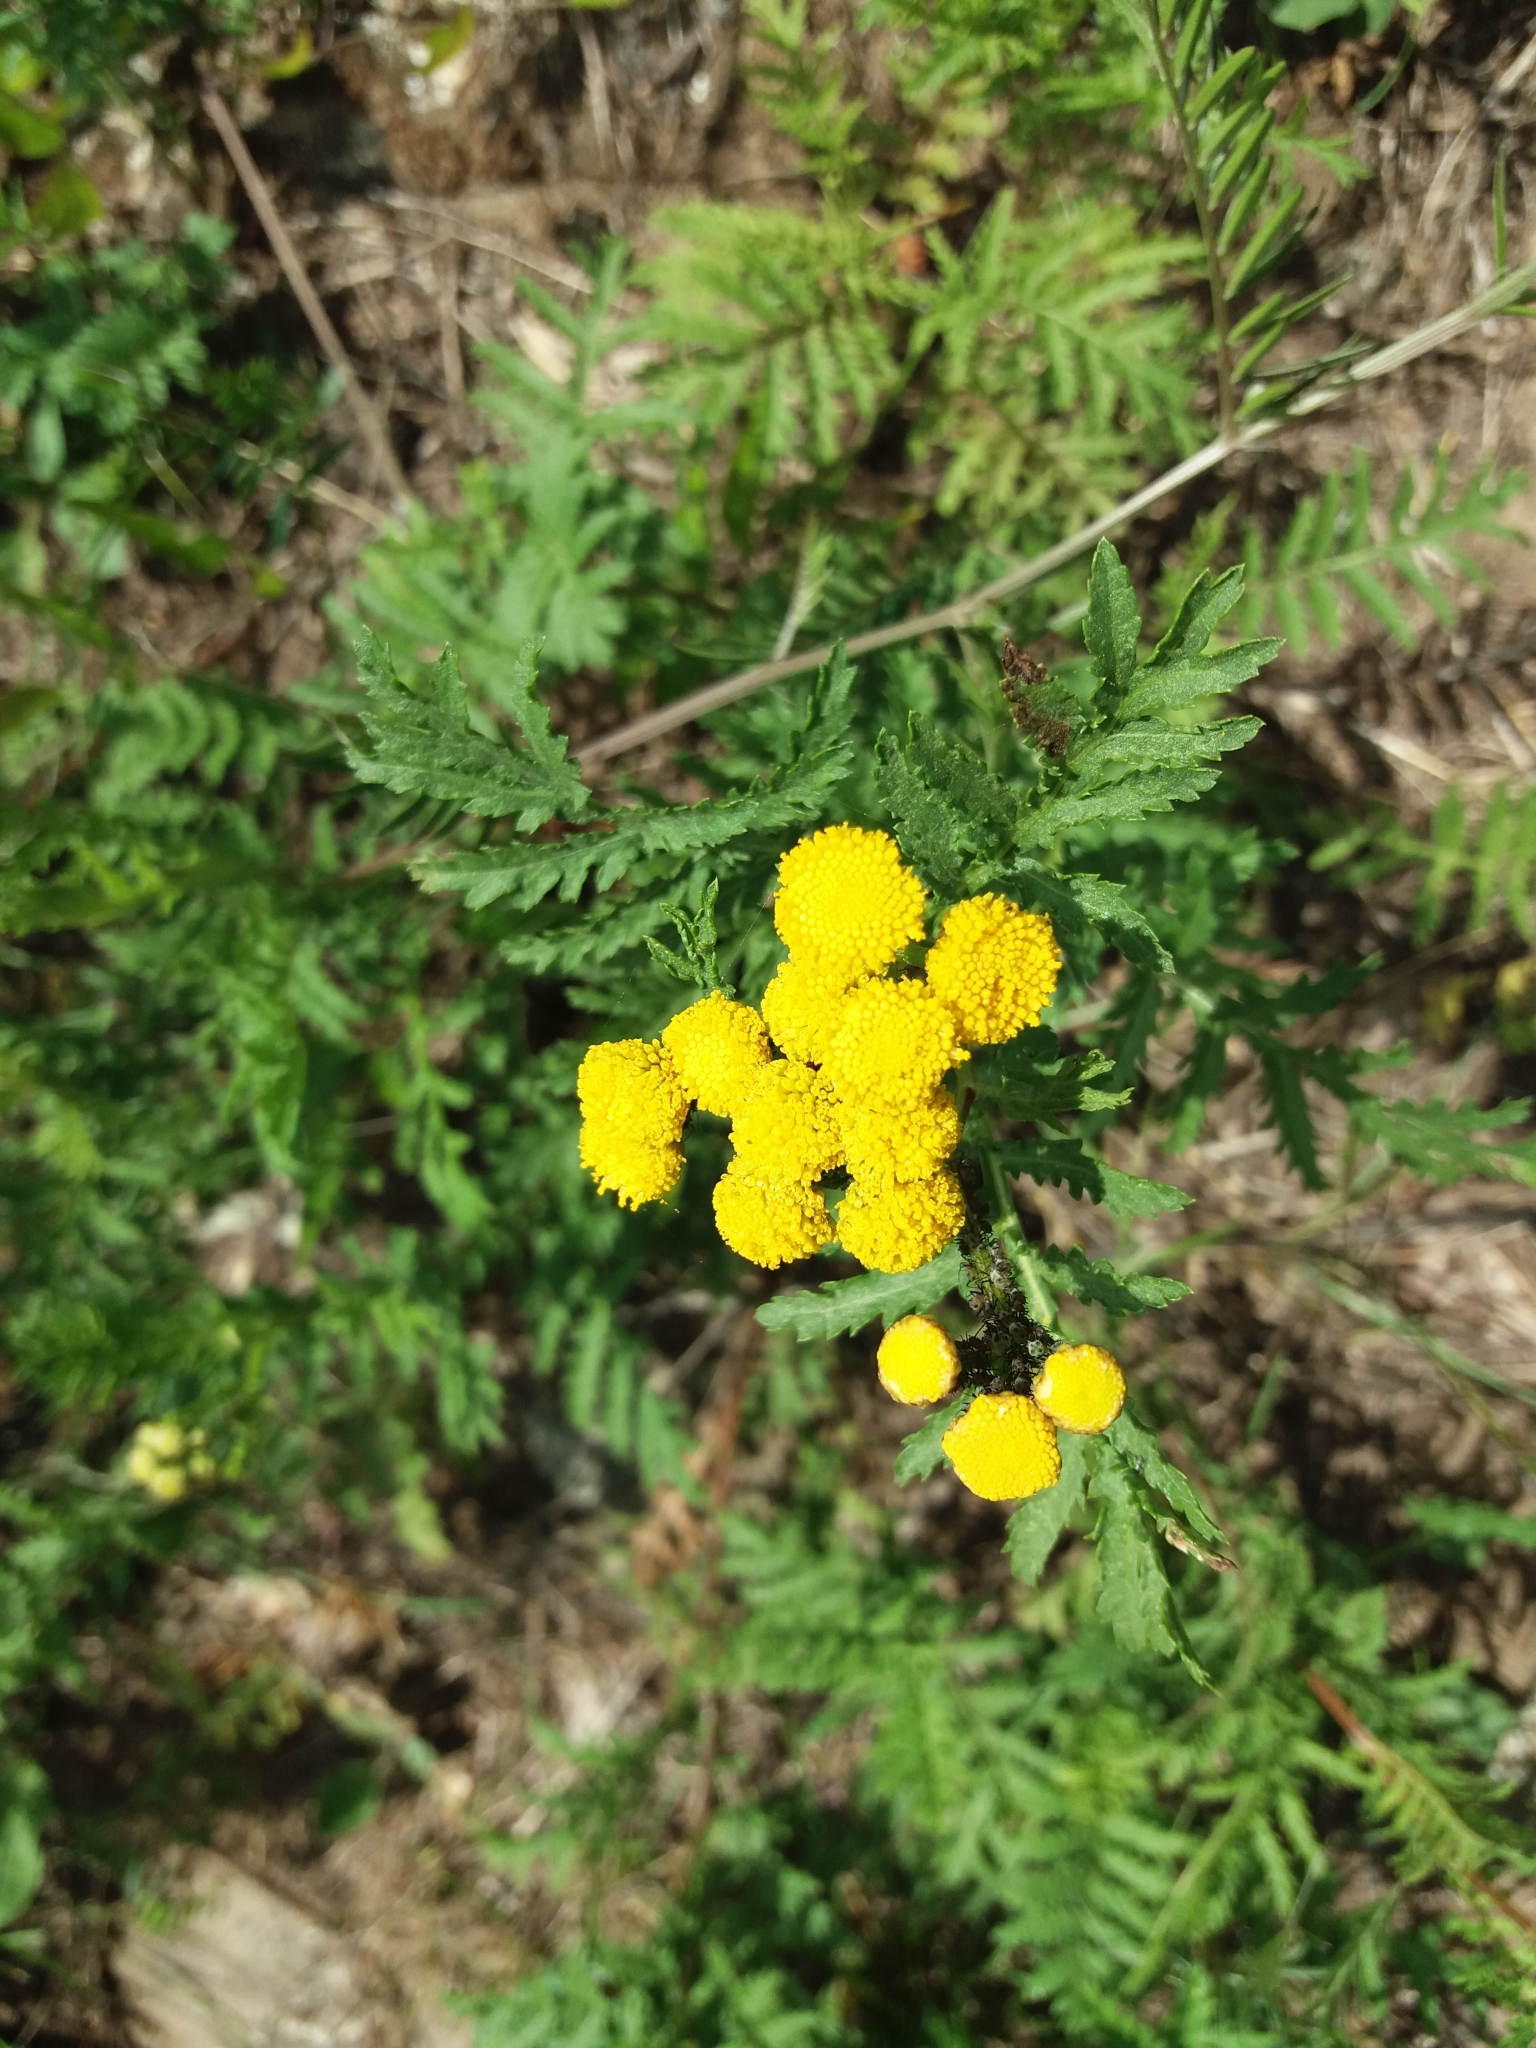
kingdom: Plantae
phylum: Tracheophyta
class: Magnoliopsida
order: Asterales
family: Asteraceae
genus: Tanacetum
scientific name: Tanacetum vulgare
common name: Common tansy
